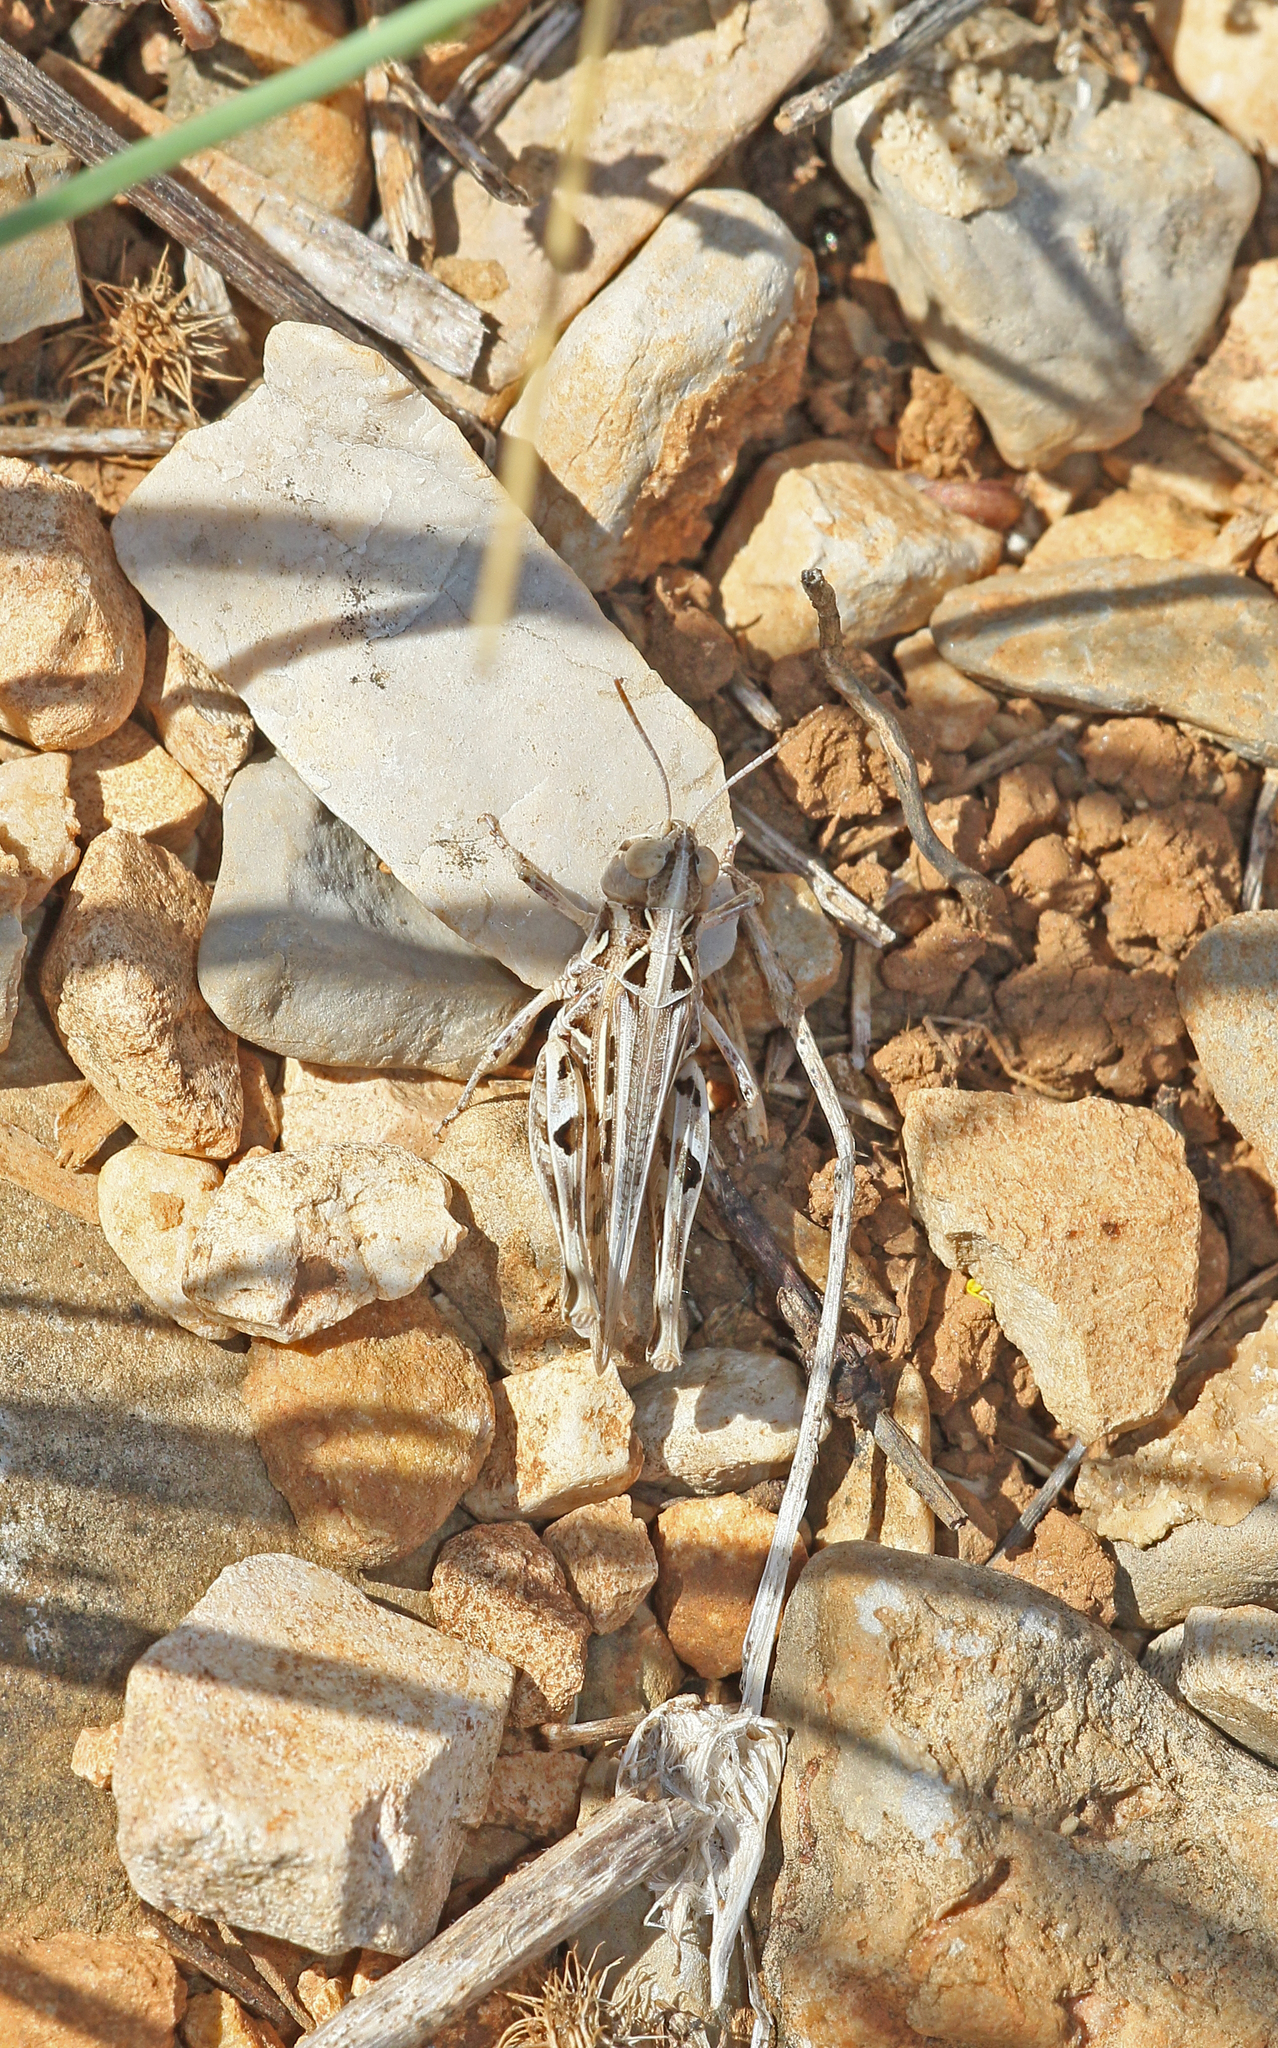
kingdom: Animalia
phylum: Arthropoda
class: Insecta
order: Orthoptera
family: Acrididae
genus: Dociostaurus
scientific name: Dociostaurus jagoi
